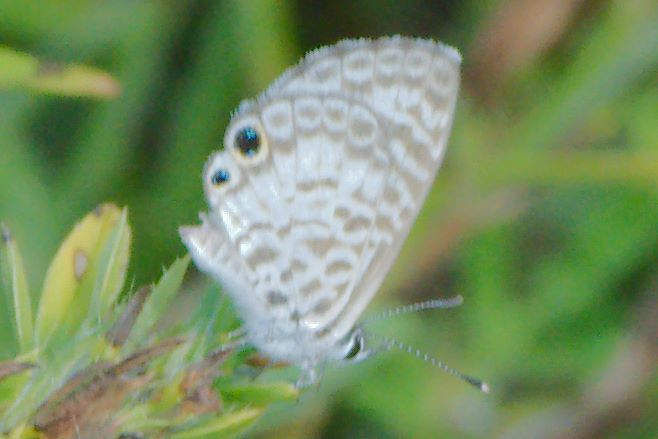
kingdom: Animalia
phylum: Arthropoda
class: Insecta
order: Lepidoptera
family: Lycaenidae
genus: Leptotes
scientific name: Leptotes cassius
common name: Cassius blue
